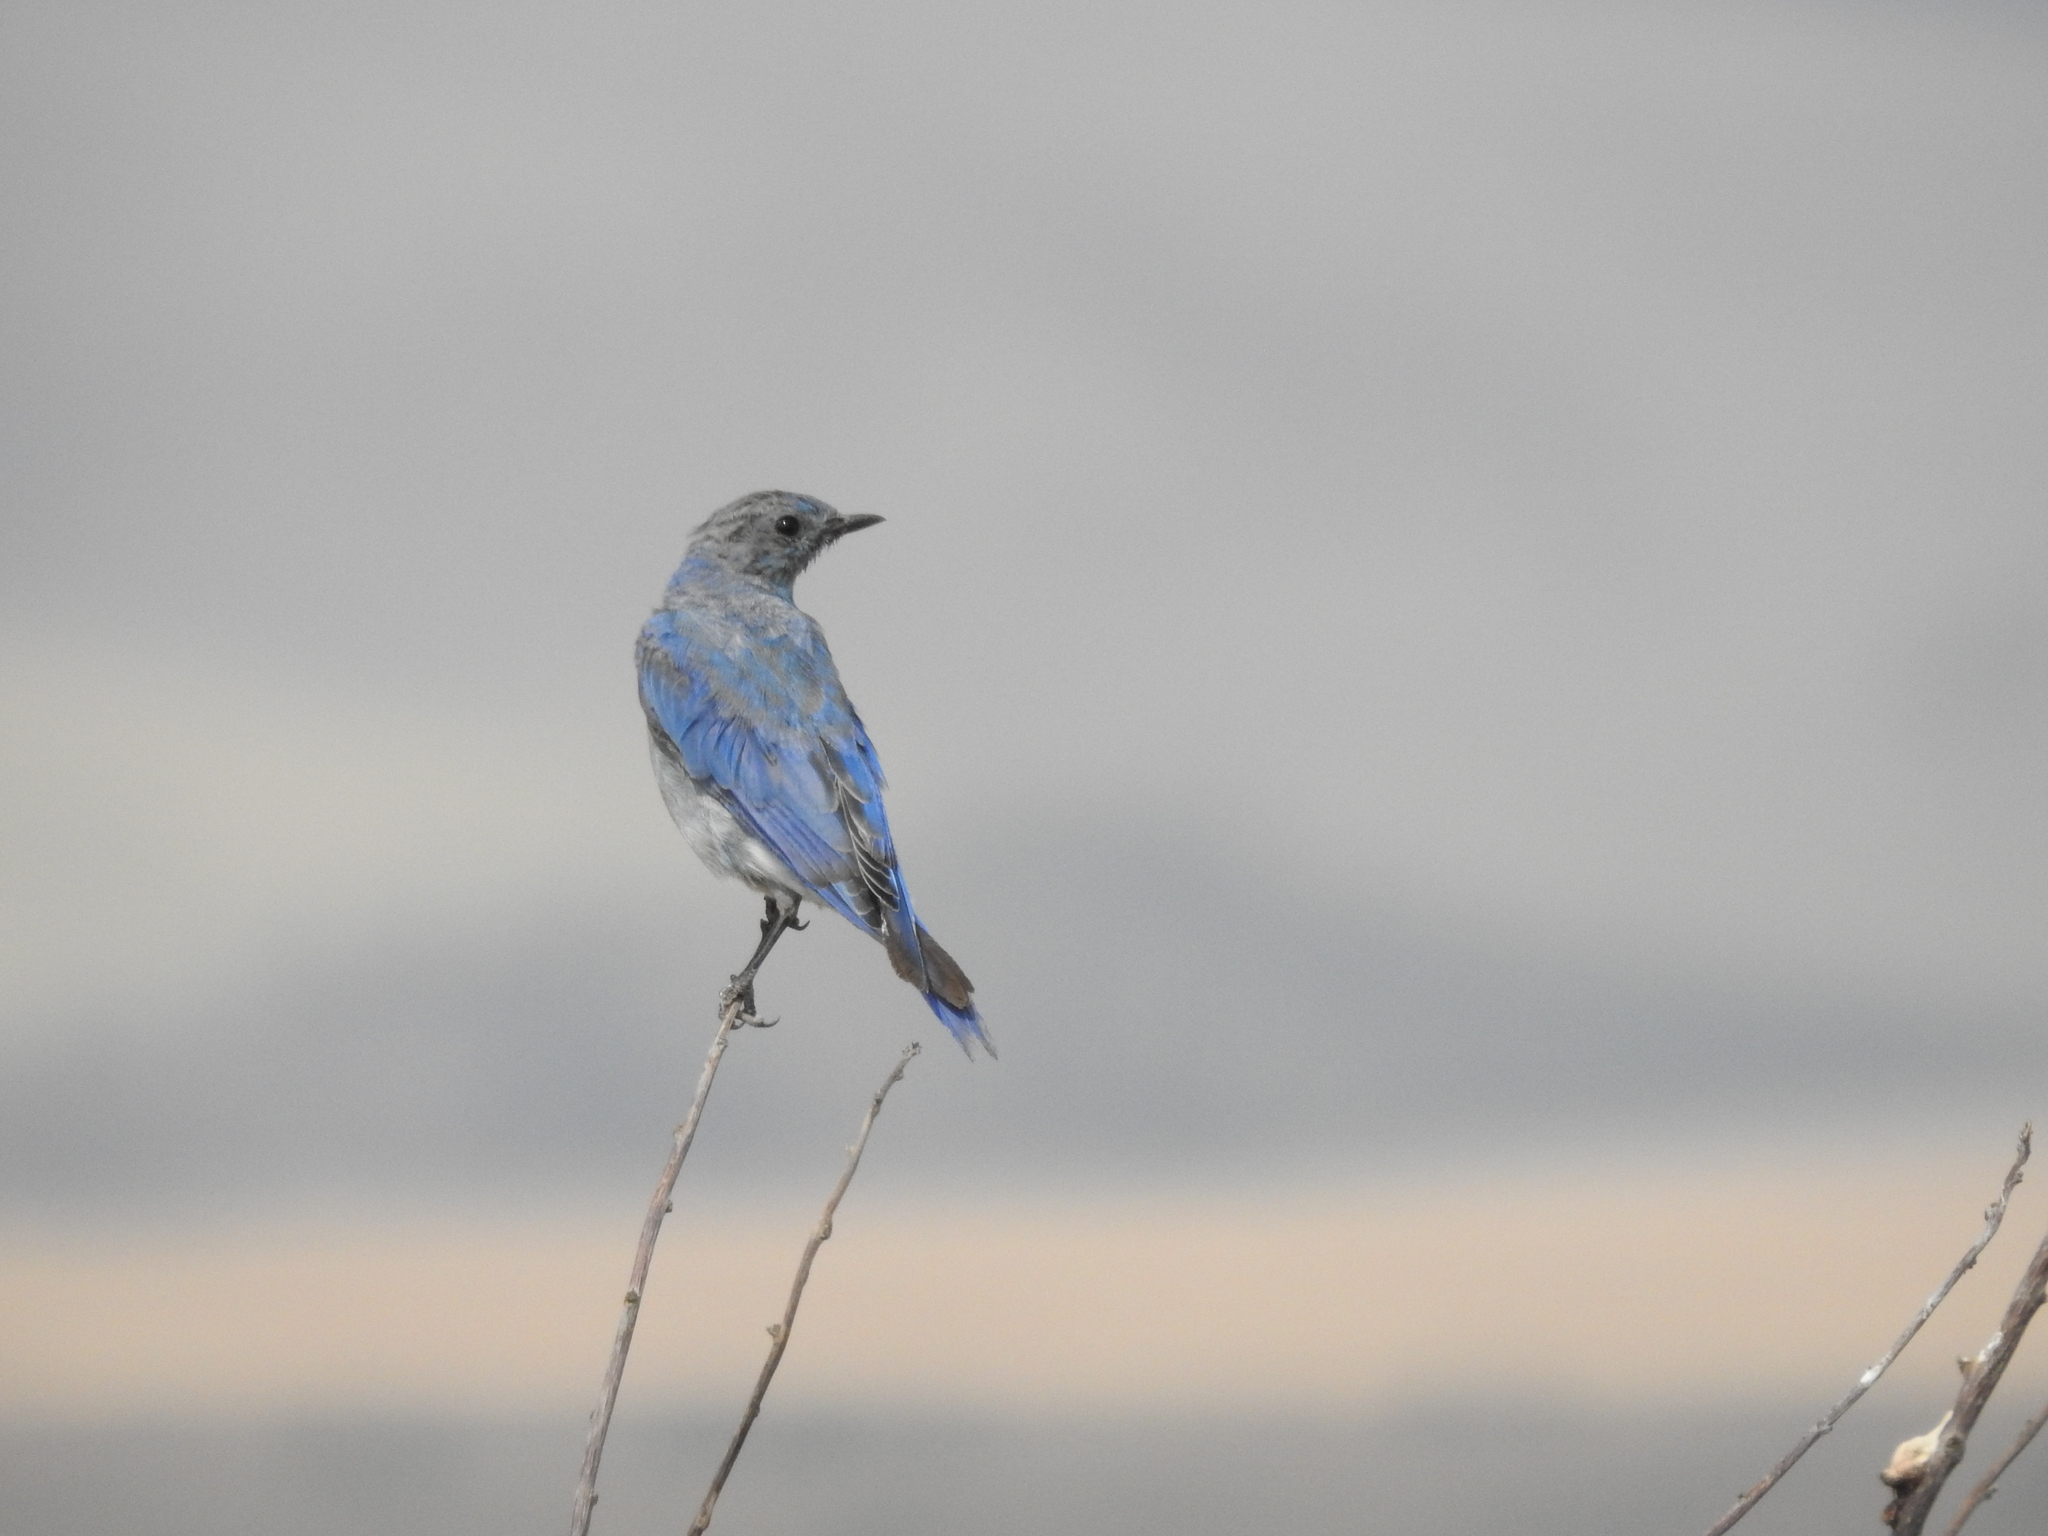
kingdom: Animalia
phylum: Chordata
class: Aves
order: Passeriformes
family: Turdidae
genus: Sialia
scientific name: Sialia currucoides
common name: Mountain bluebird
